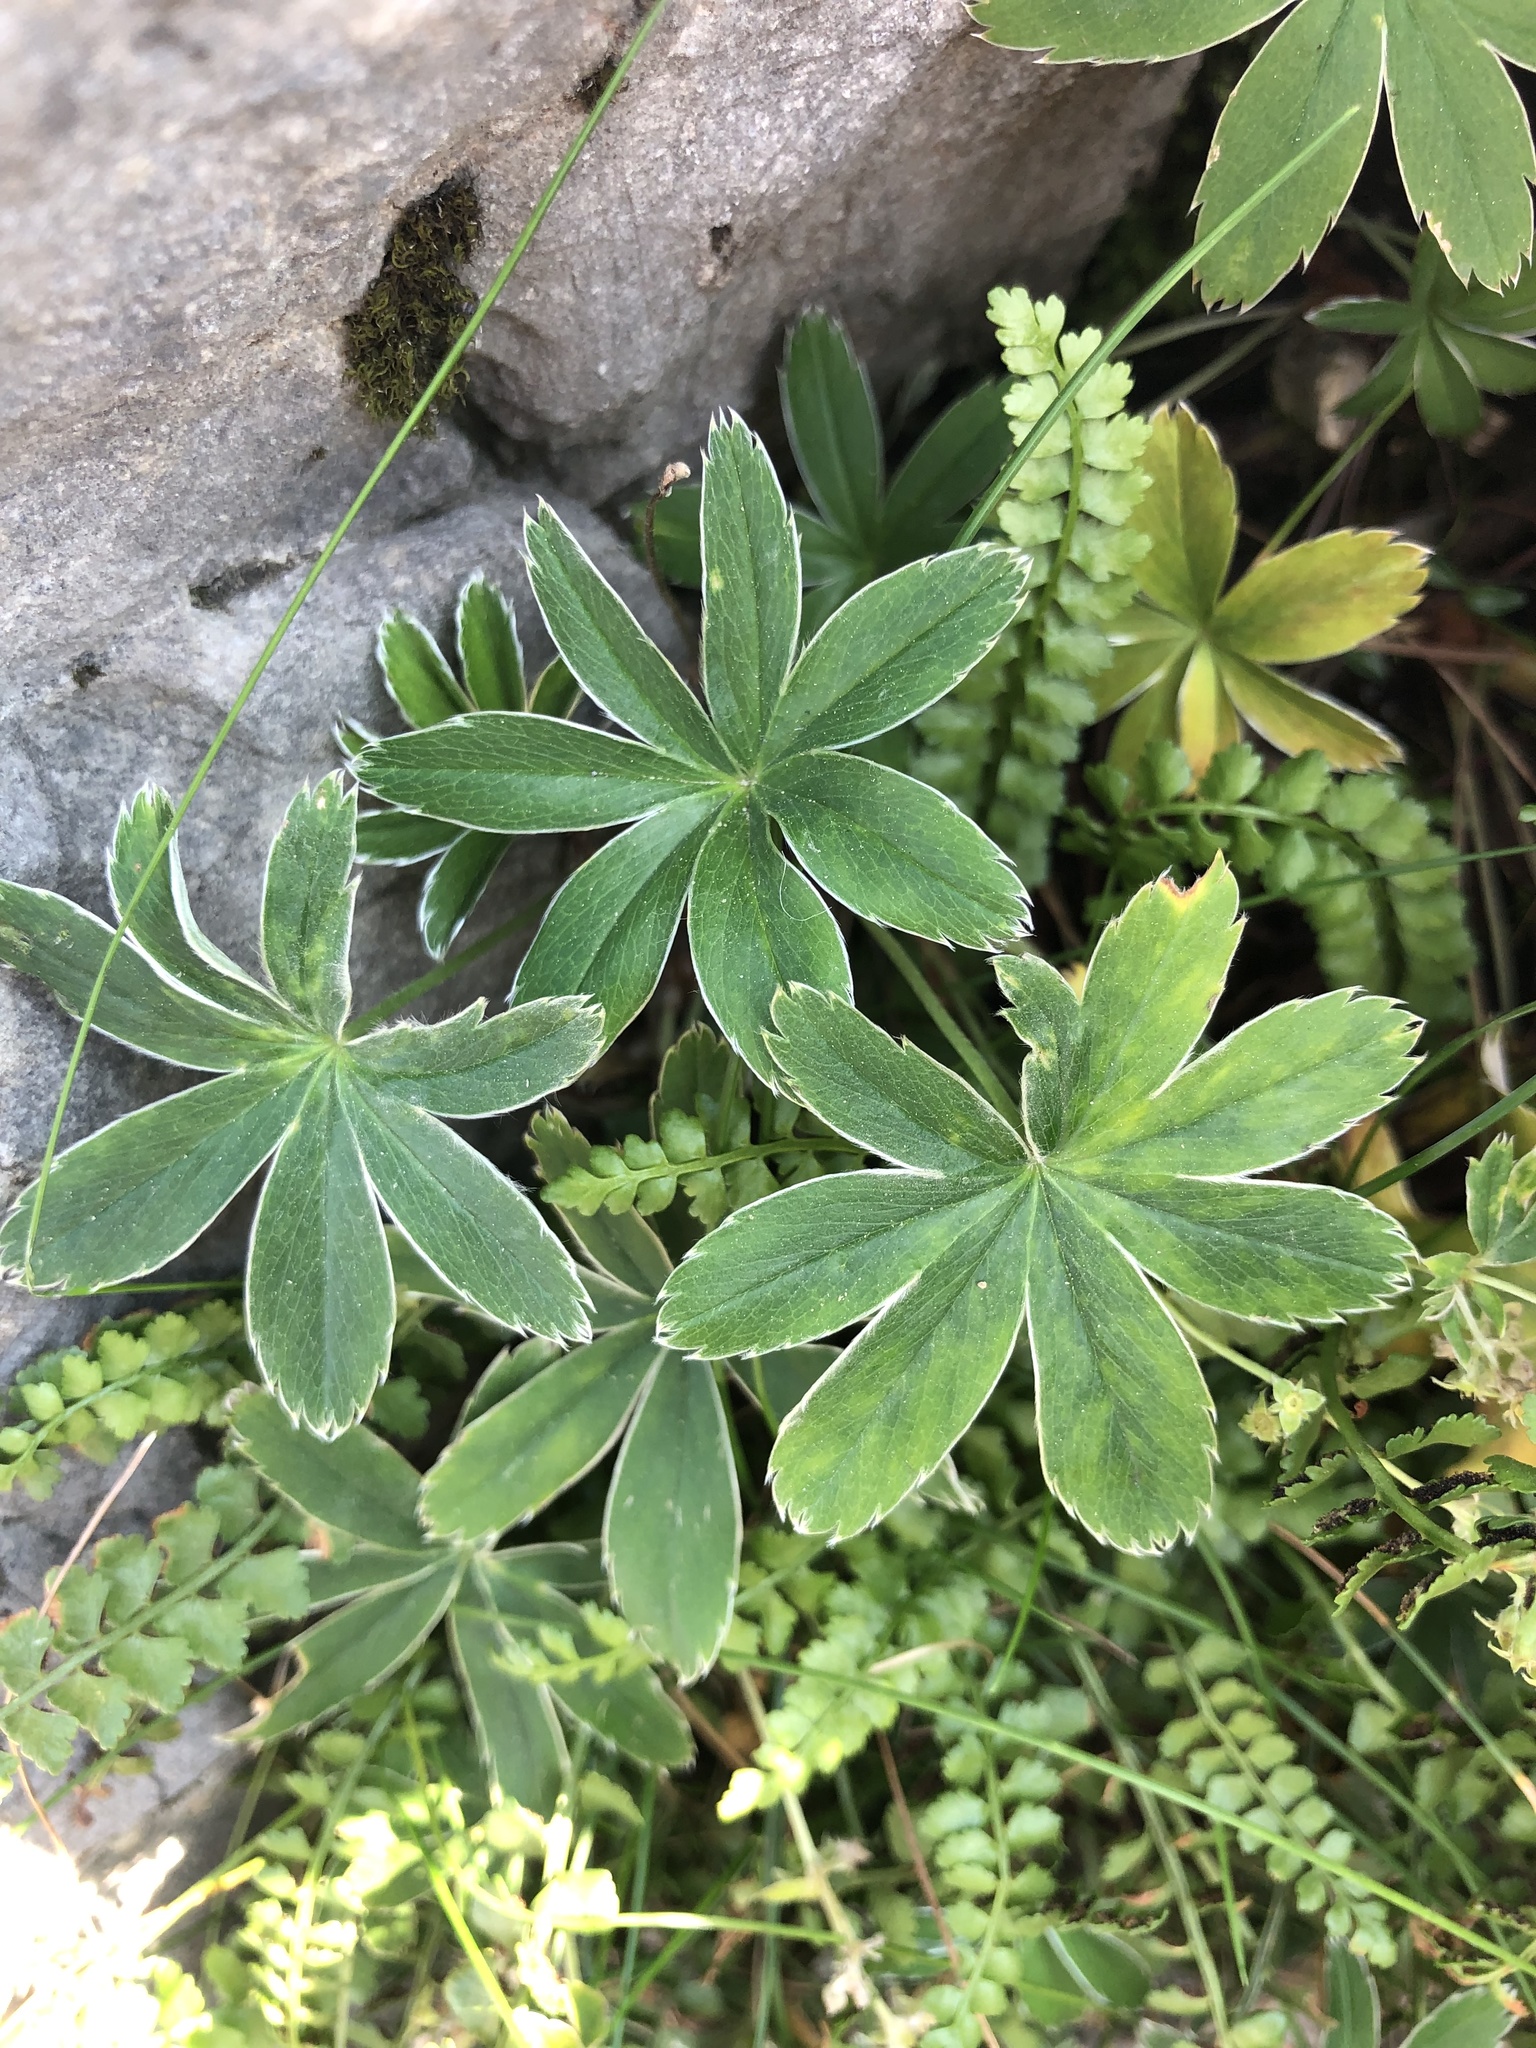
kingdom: Plantae
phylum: Tracheophyta
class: Magnoliopsida
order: Rosales
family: Rosaceae
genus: Alchemilla
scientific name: Alchemilla alpina
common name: Alpine lady's-mantle
